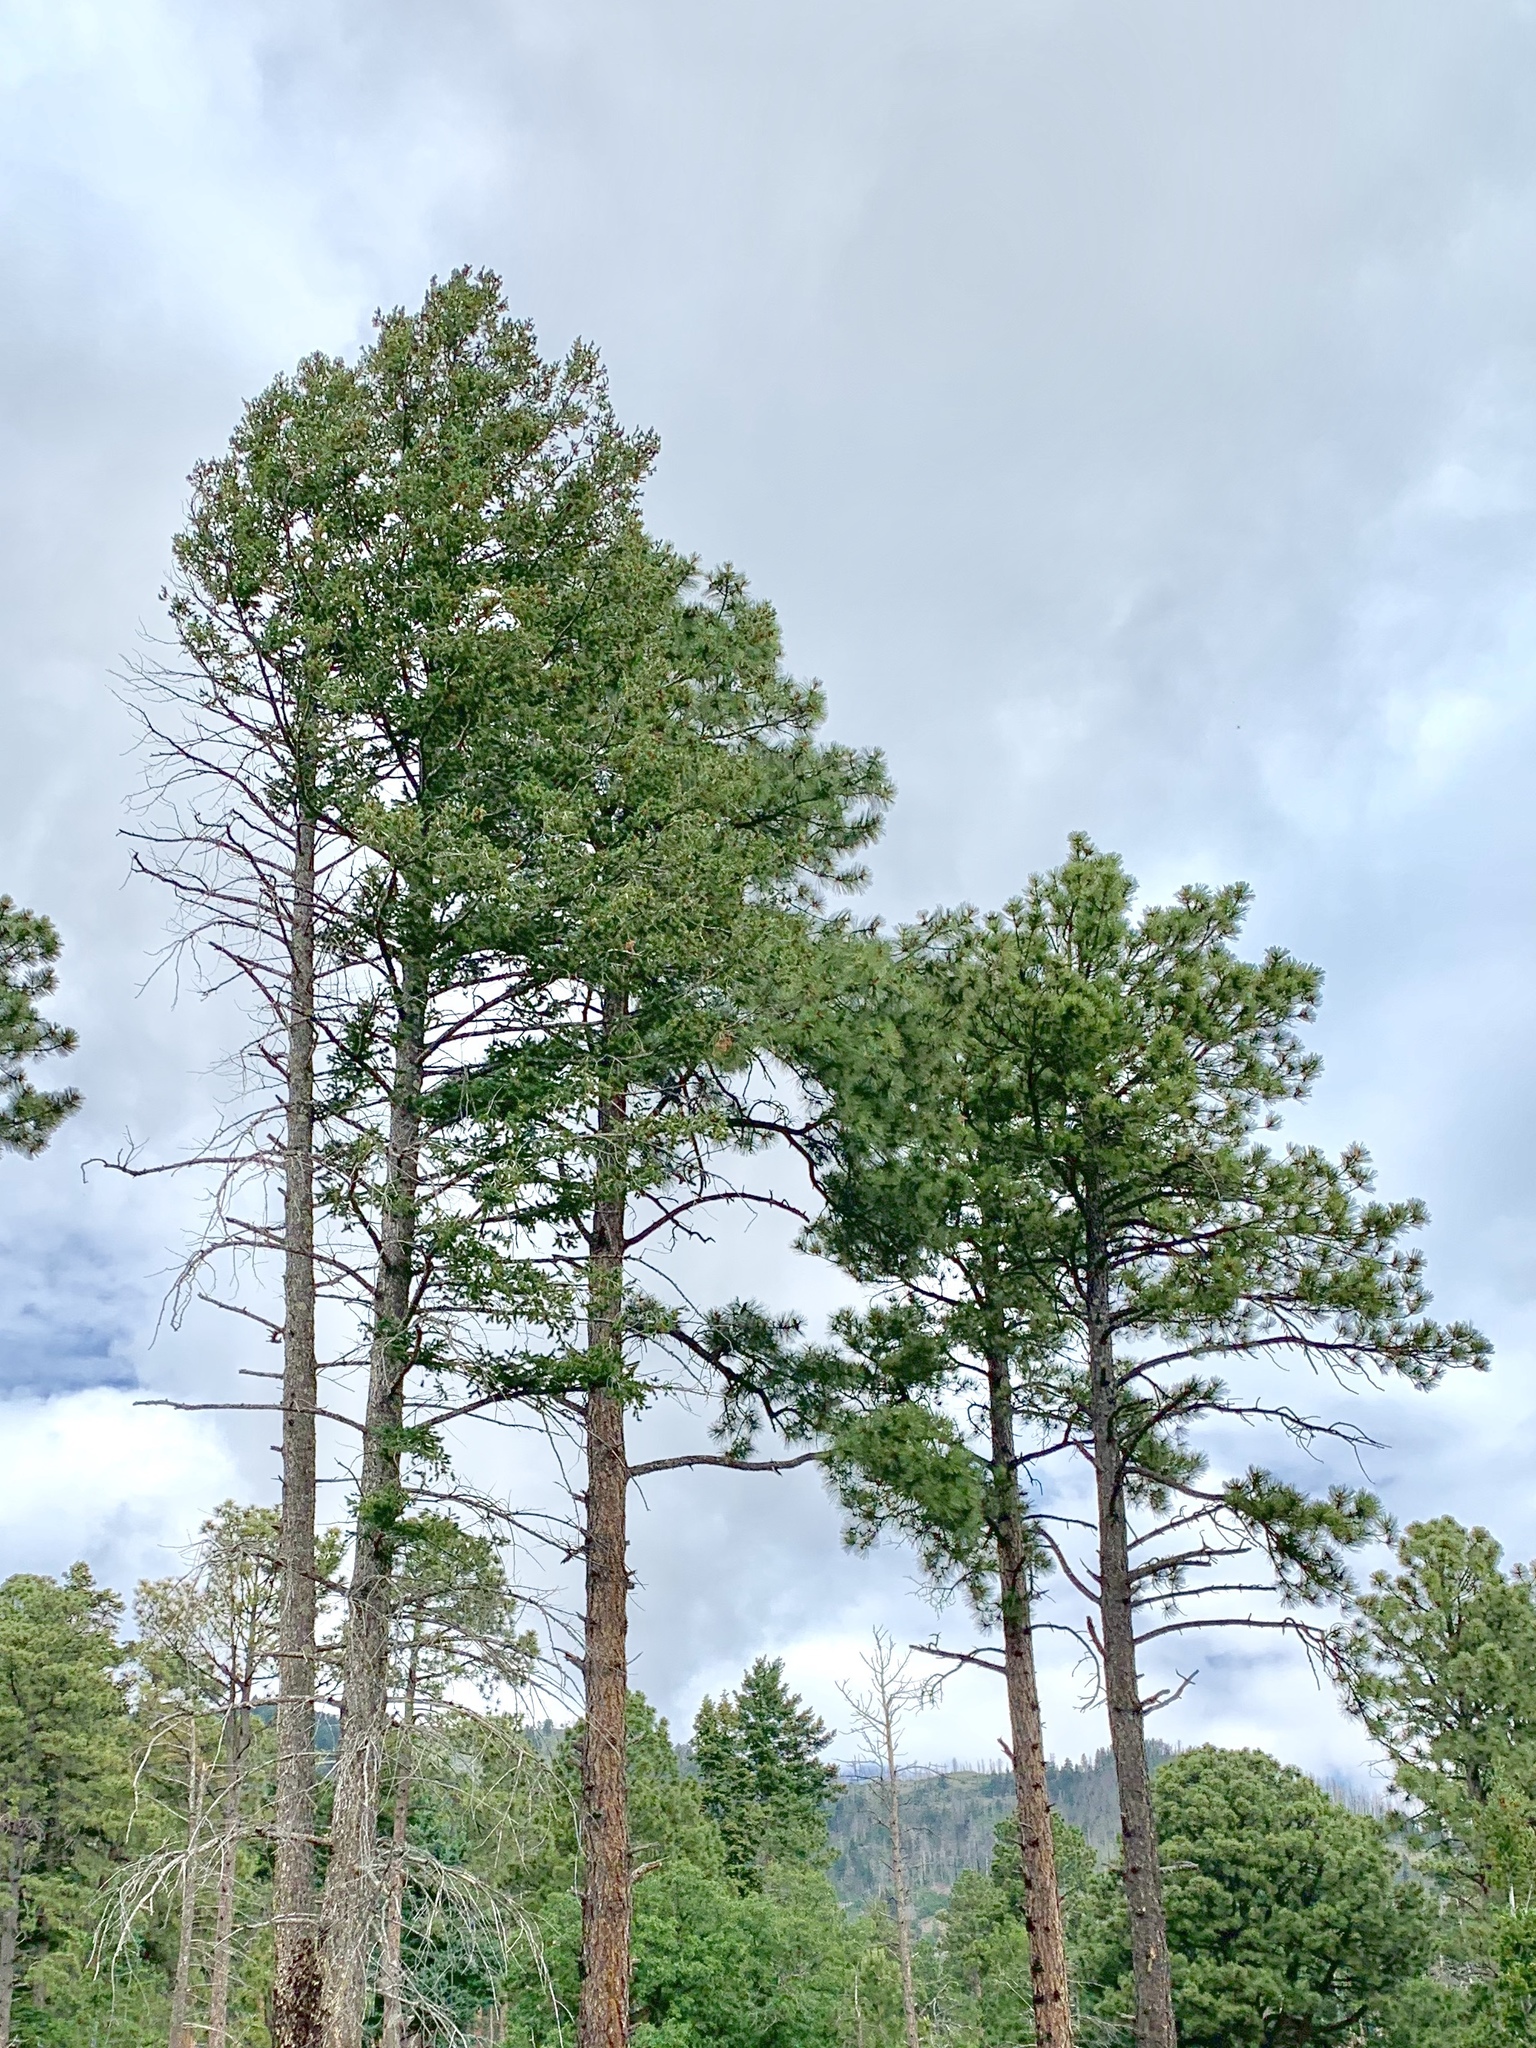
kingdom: Plantae
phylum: Tracheophyta
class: Pinopsida
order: Pinales
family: Pinaceae
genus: Pinus
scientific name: Pinus ponderosa
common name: Western yellow-pine
